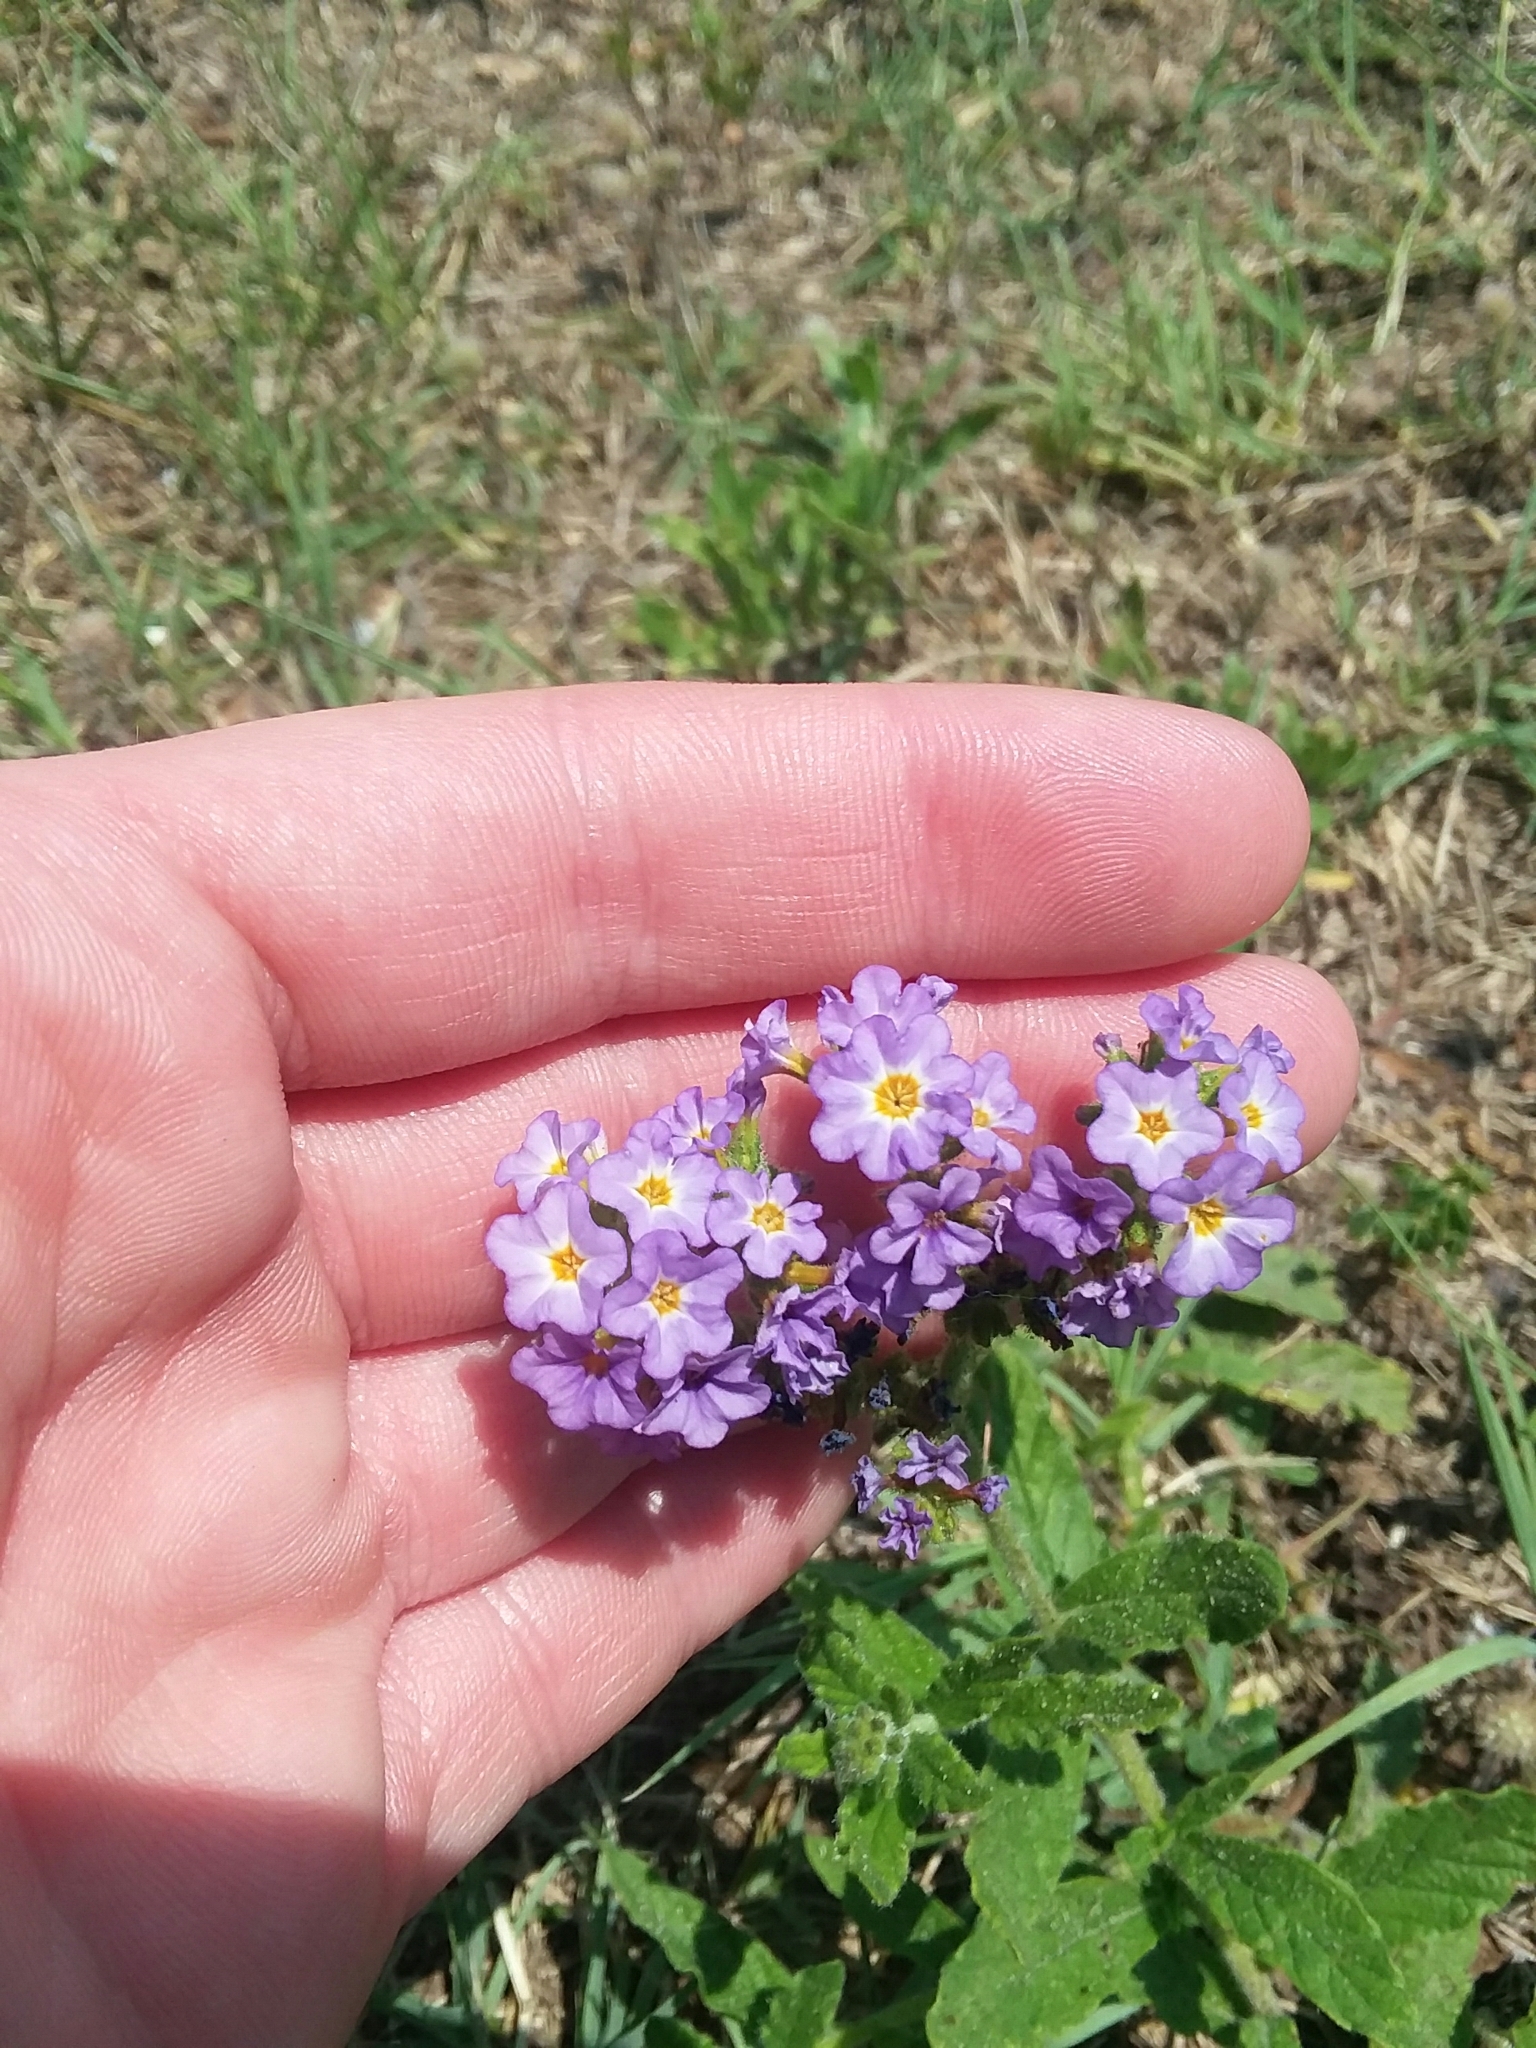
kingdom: Plantae
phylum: Tracheophyta
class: Magnoliopsida
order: Boraginales
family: Heliotropiaceae
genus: Heliotropium
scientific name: Heliotropium amplexicaule
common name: Clasping heliotrope
